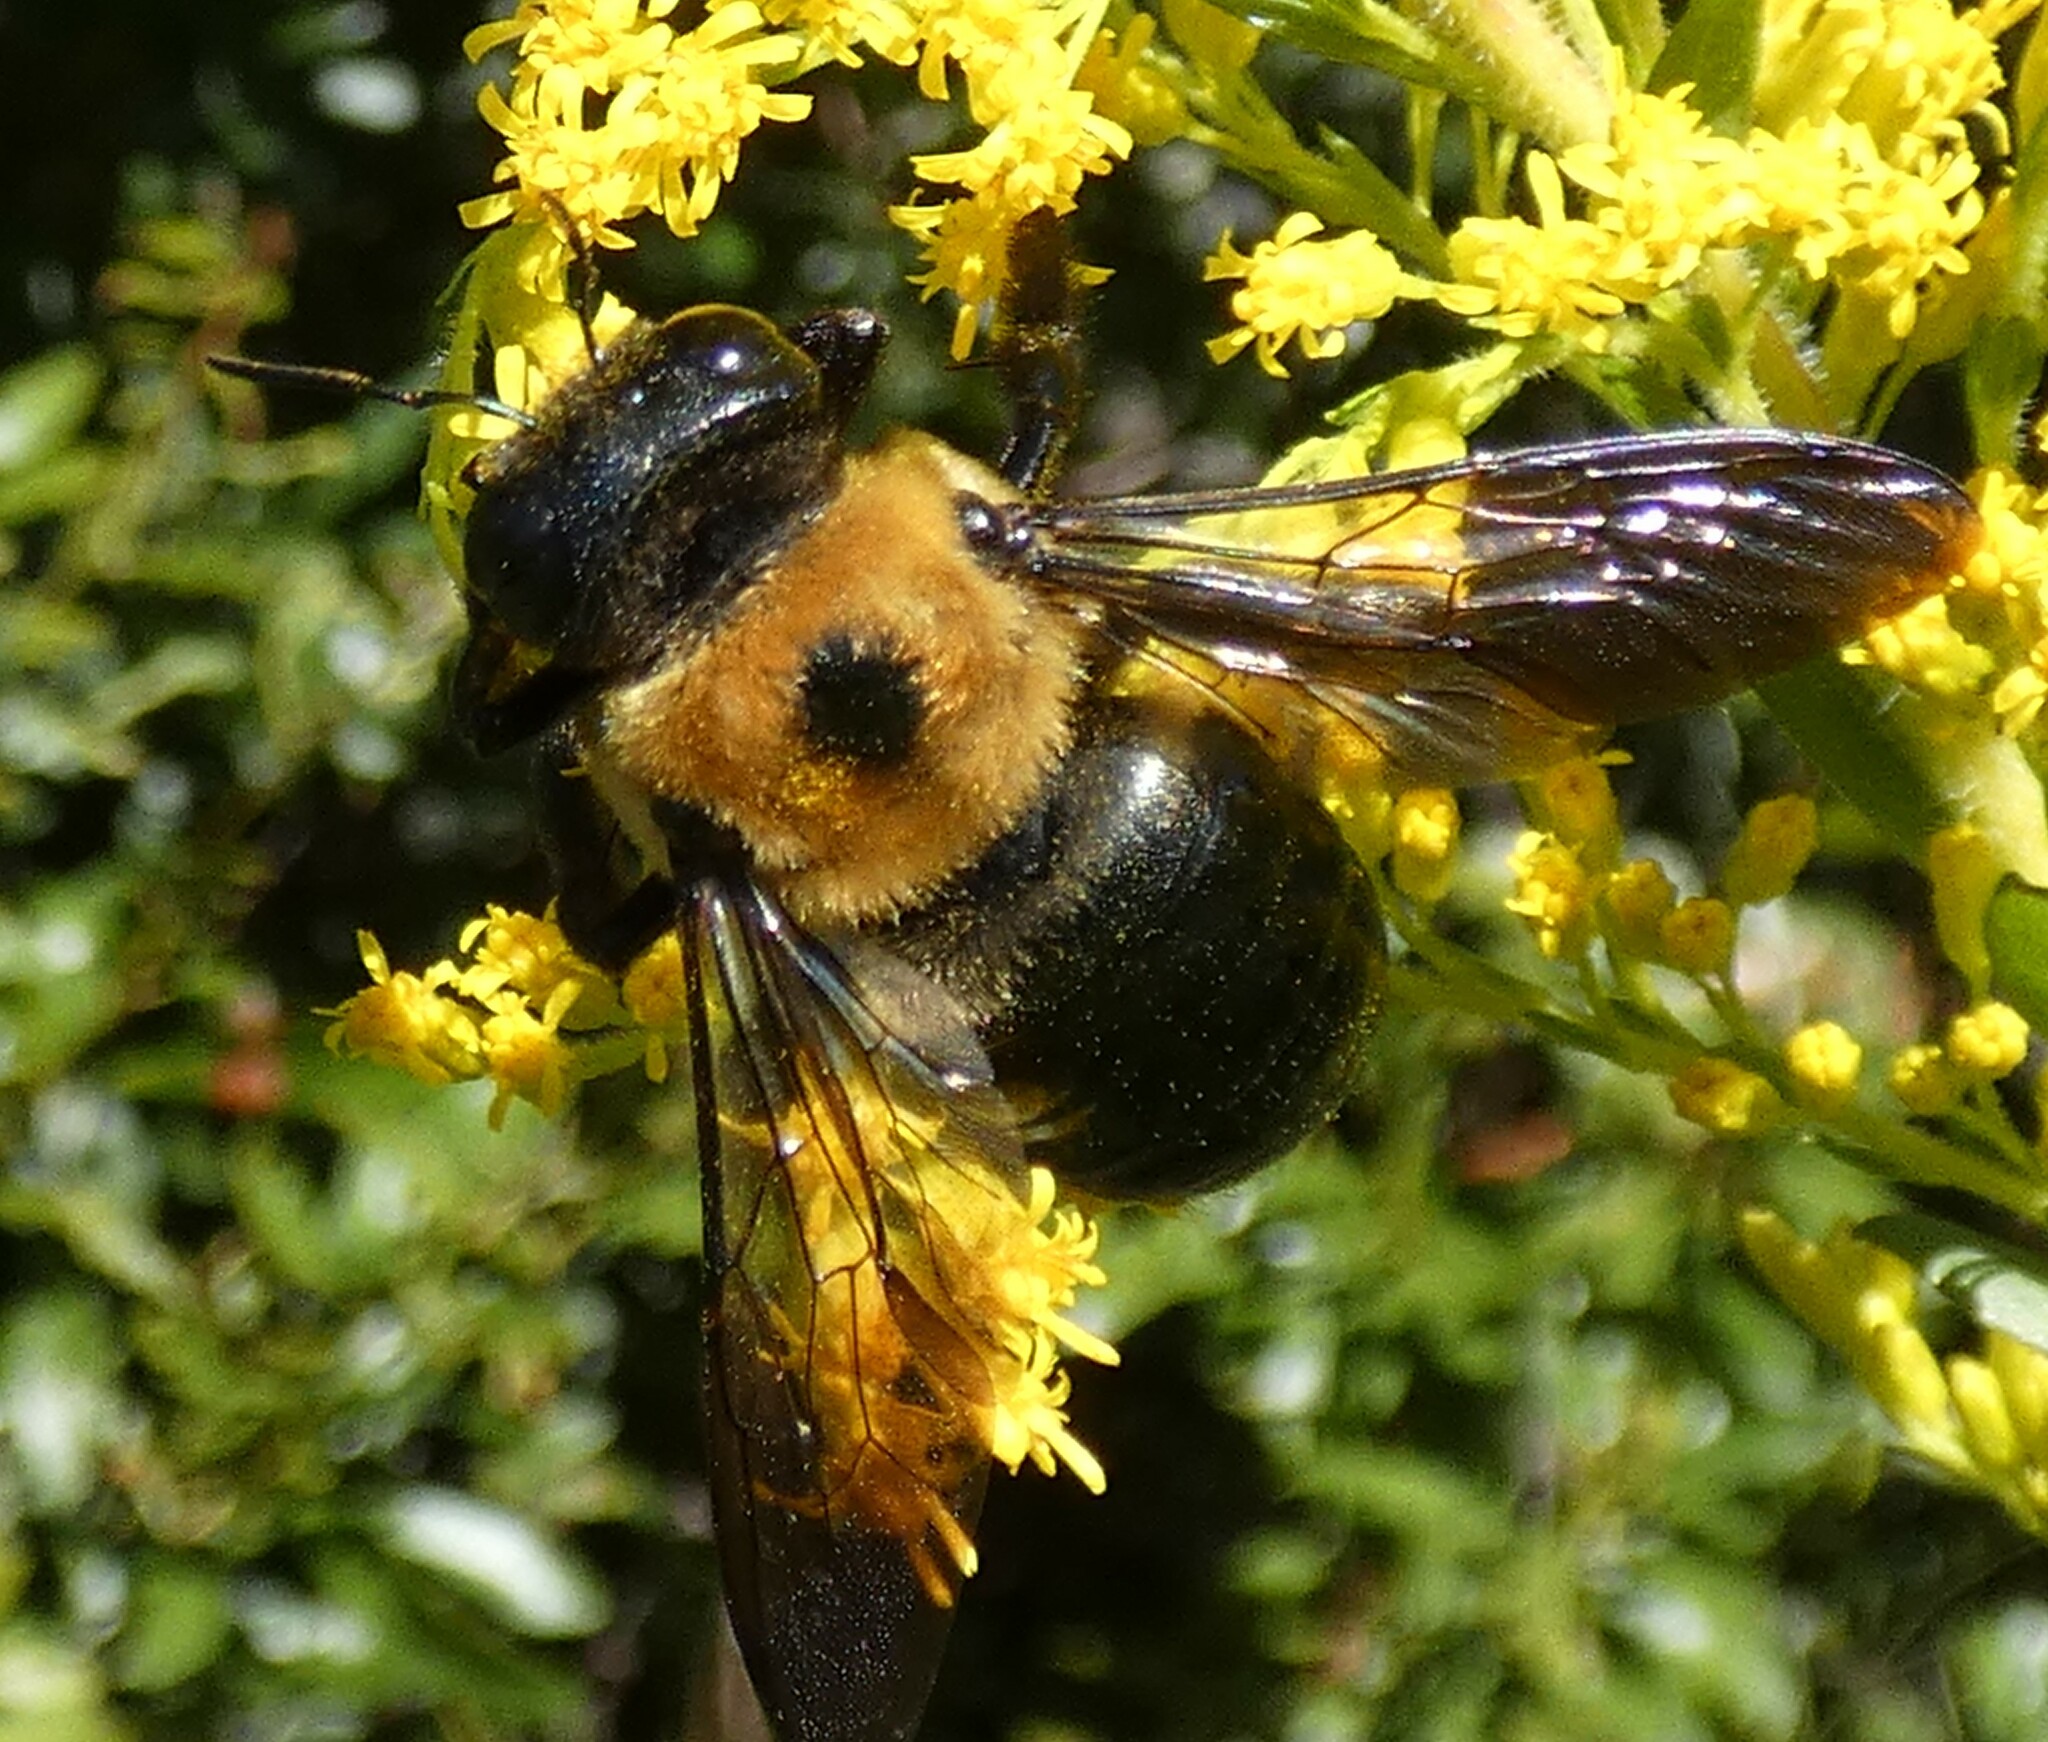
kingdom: Animalia
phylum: Arthropoda
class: Insecta
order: Hymenoptera
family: Apidae
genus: Xylocopa
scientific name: Xylocopa virginica
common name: Carpenter bee
